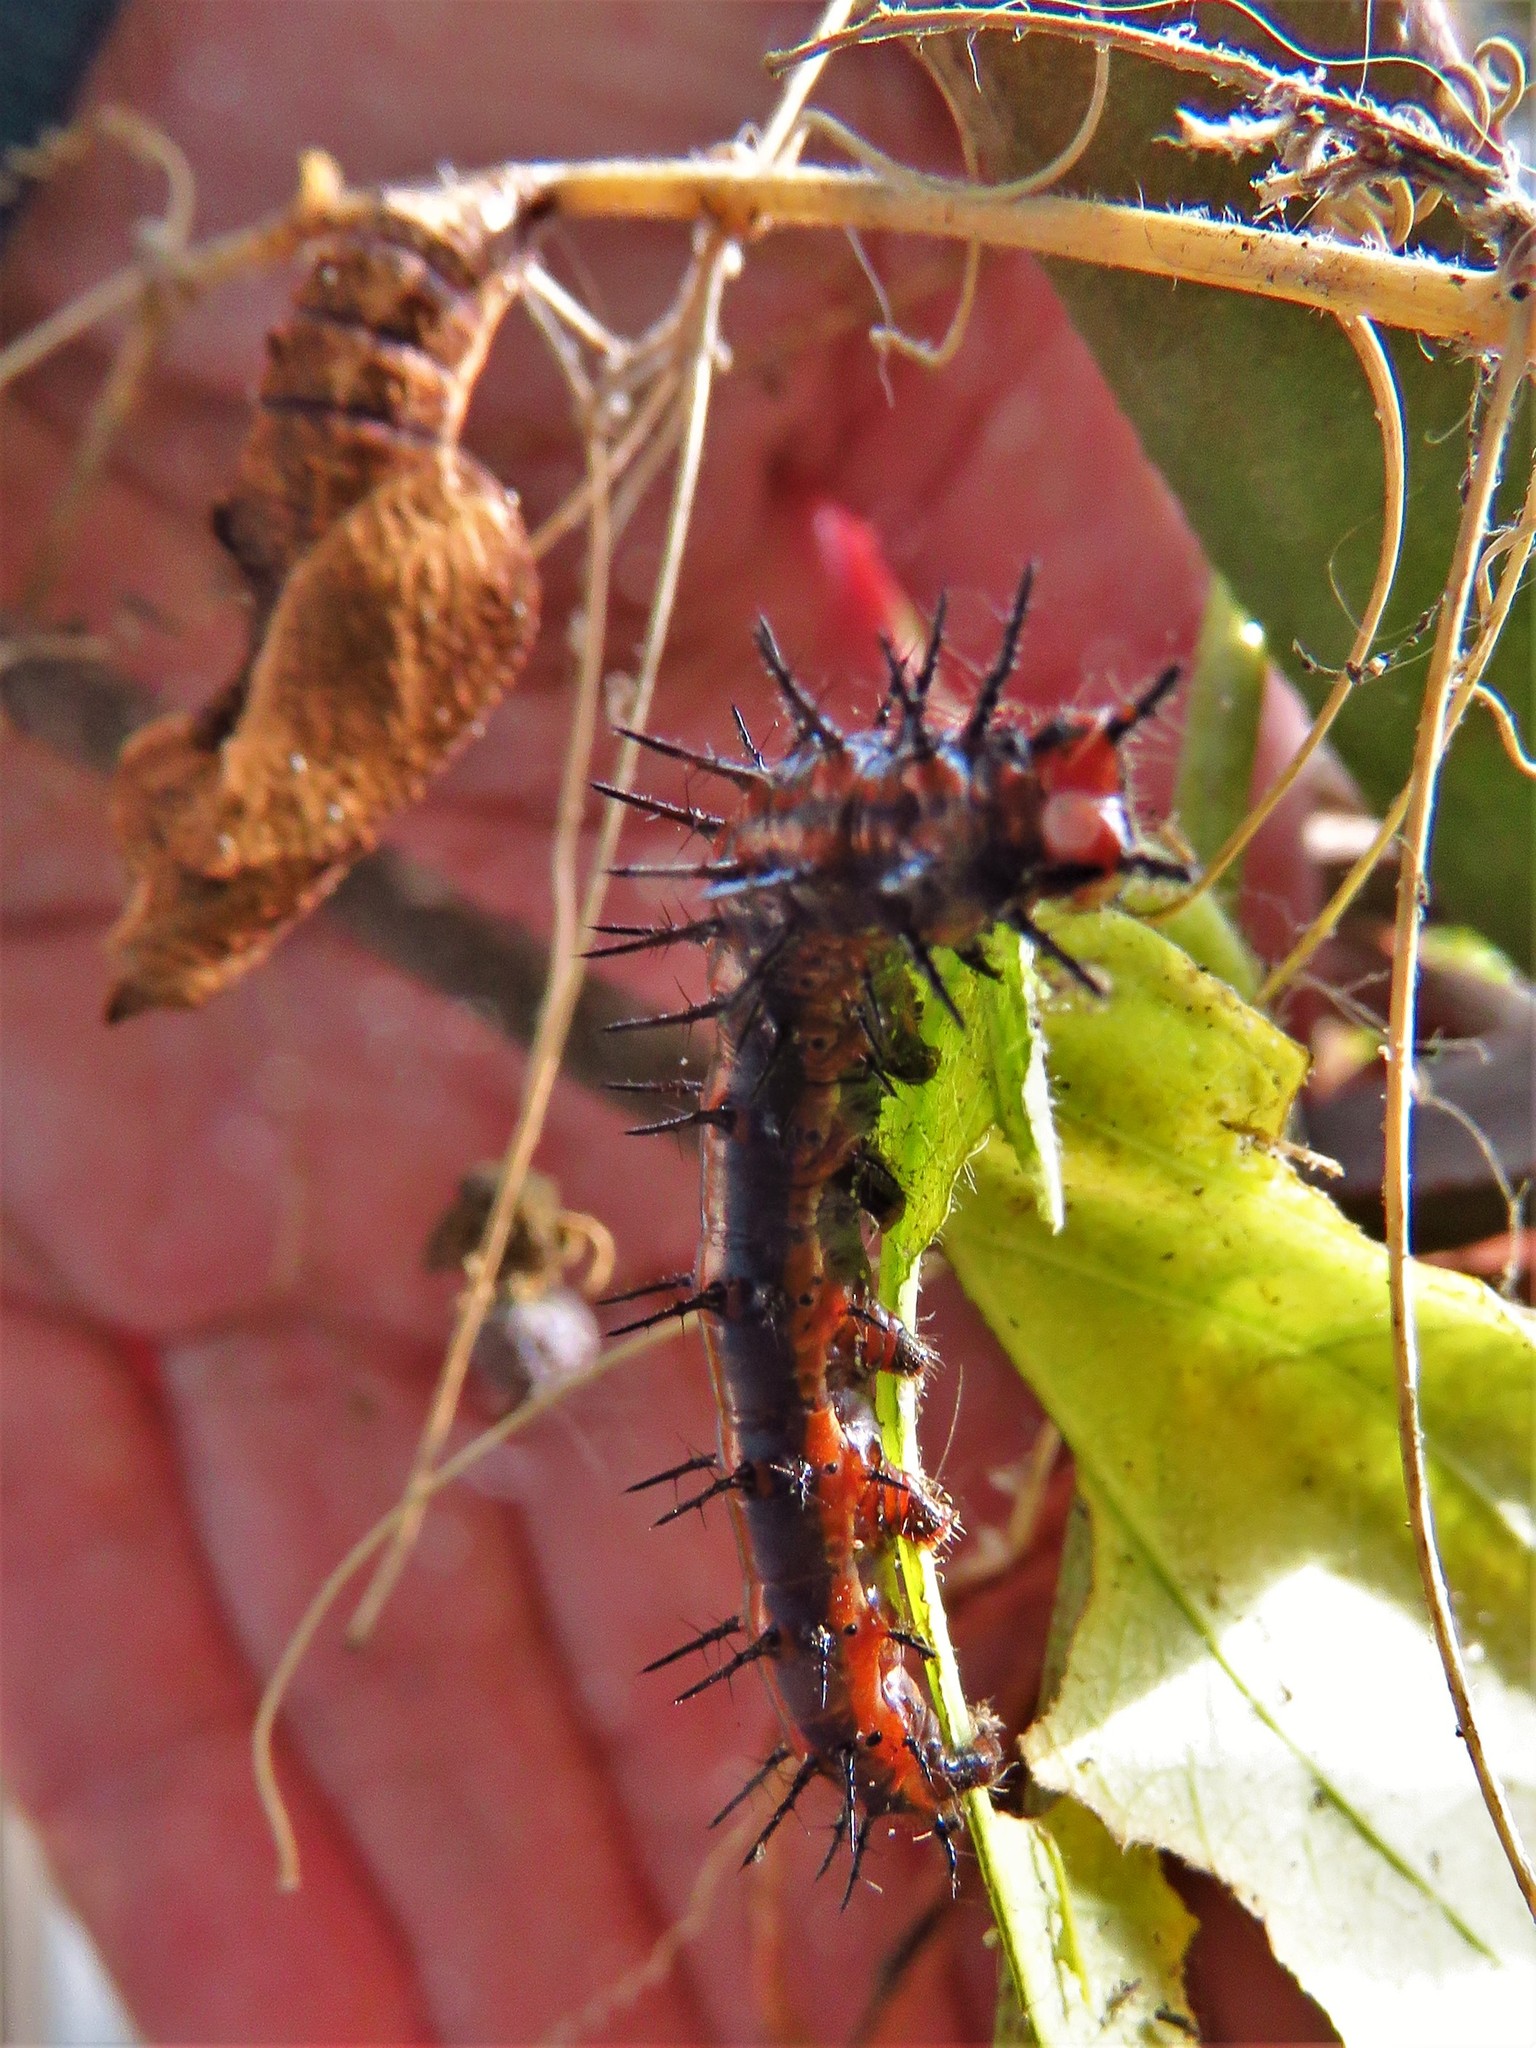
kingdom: Animalia
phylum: Arthropoda
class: Insecta
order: Lepidoptera
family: Nymphalidae
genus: Dione
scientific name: Dione vanillae
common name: Gulf fritillary
